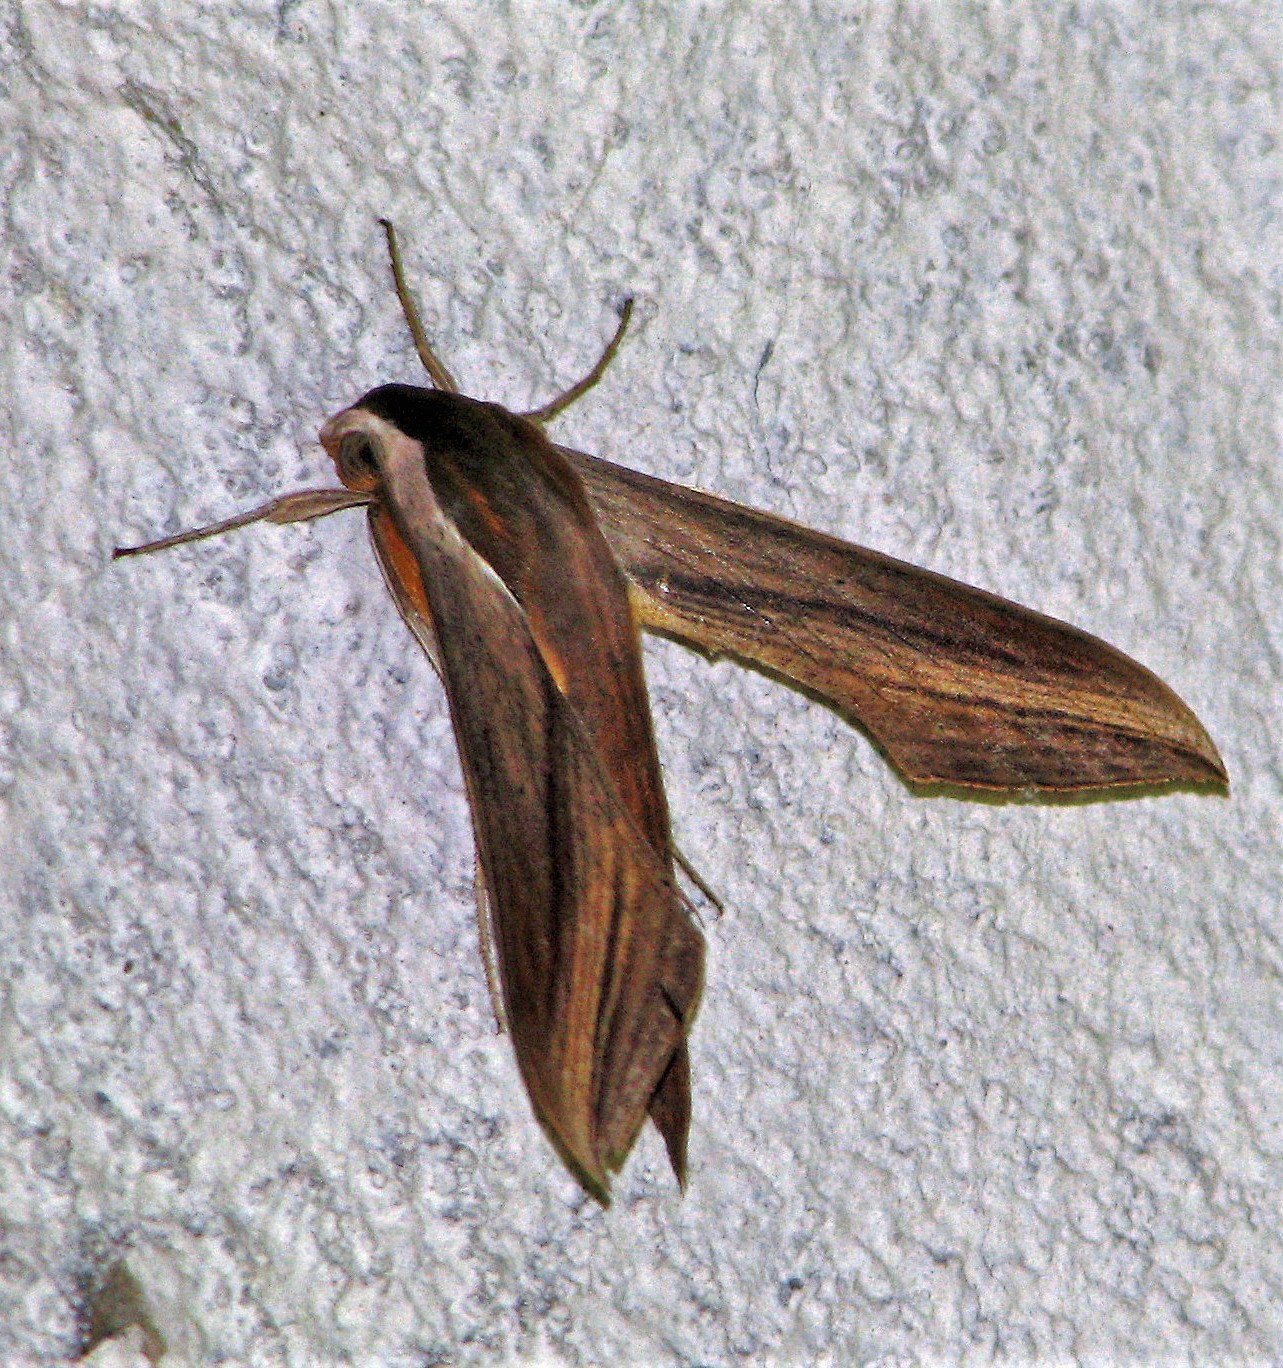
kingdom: Animalia
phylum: Arthropoda
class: Insecta
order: Lepidoptera
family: Sphingidae
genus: Xylophanes
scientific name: Xylophanes tersa
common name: Tersa sphinx
